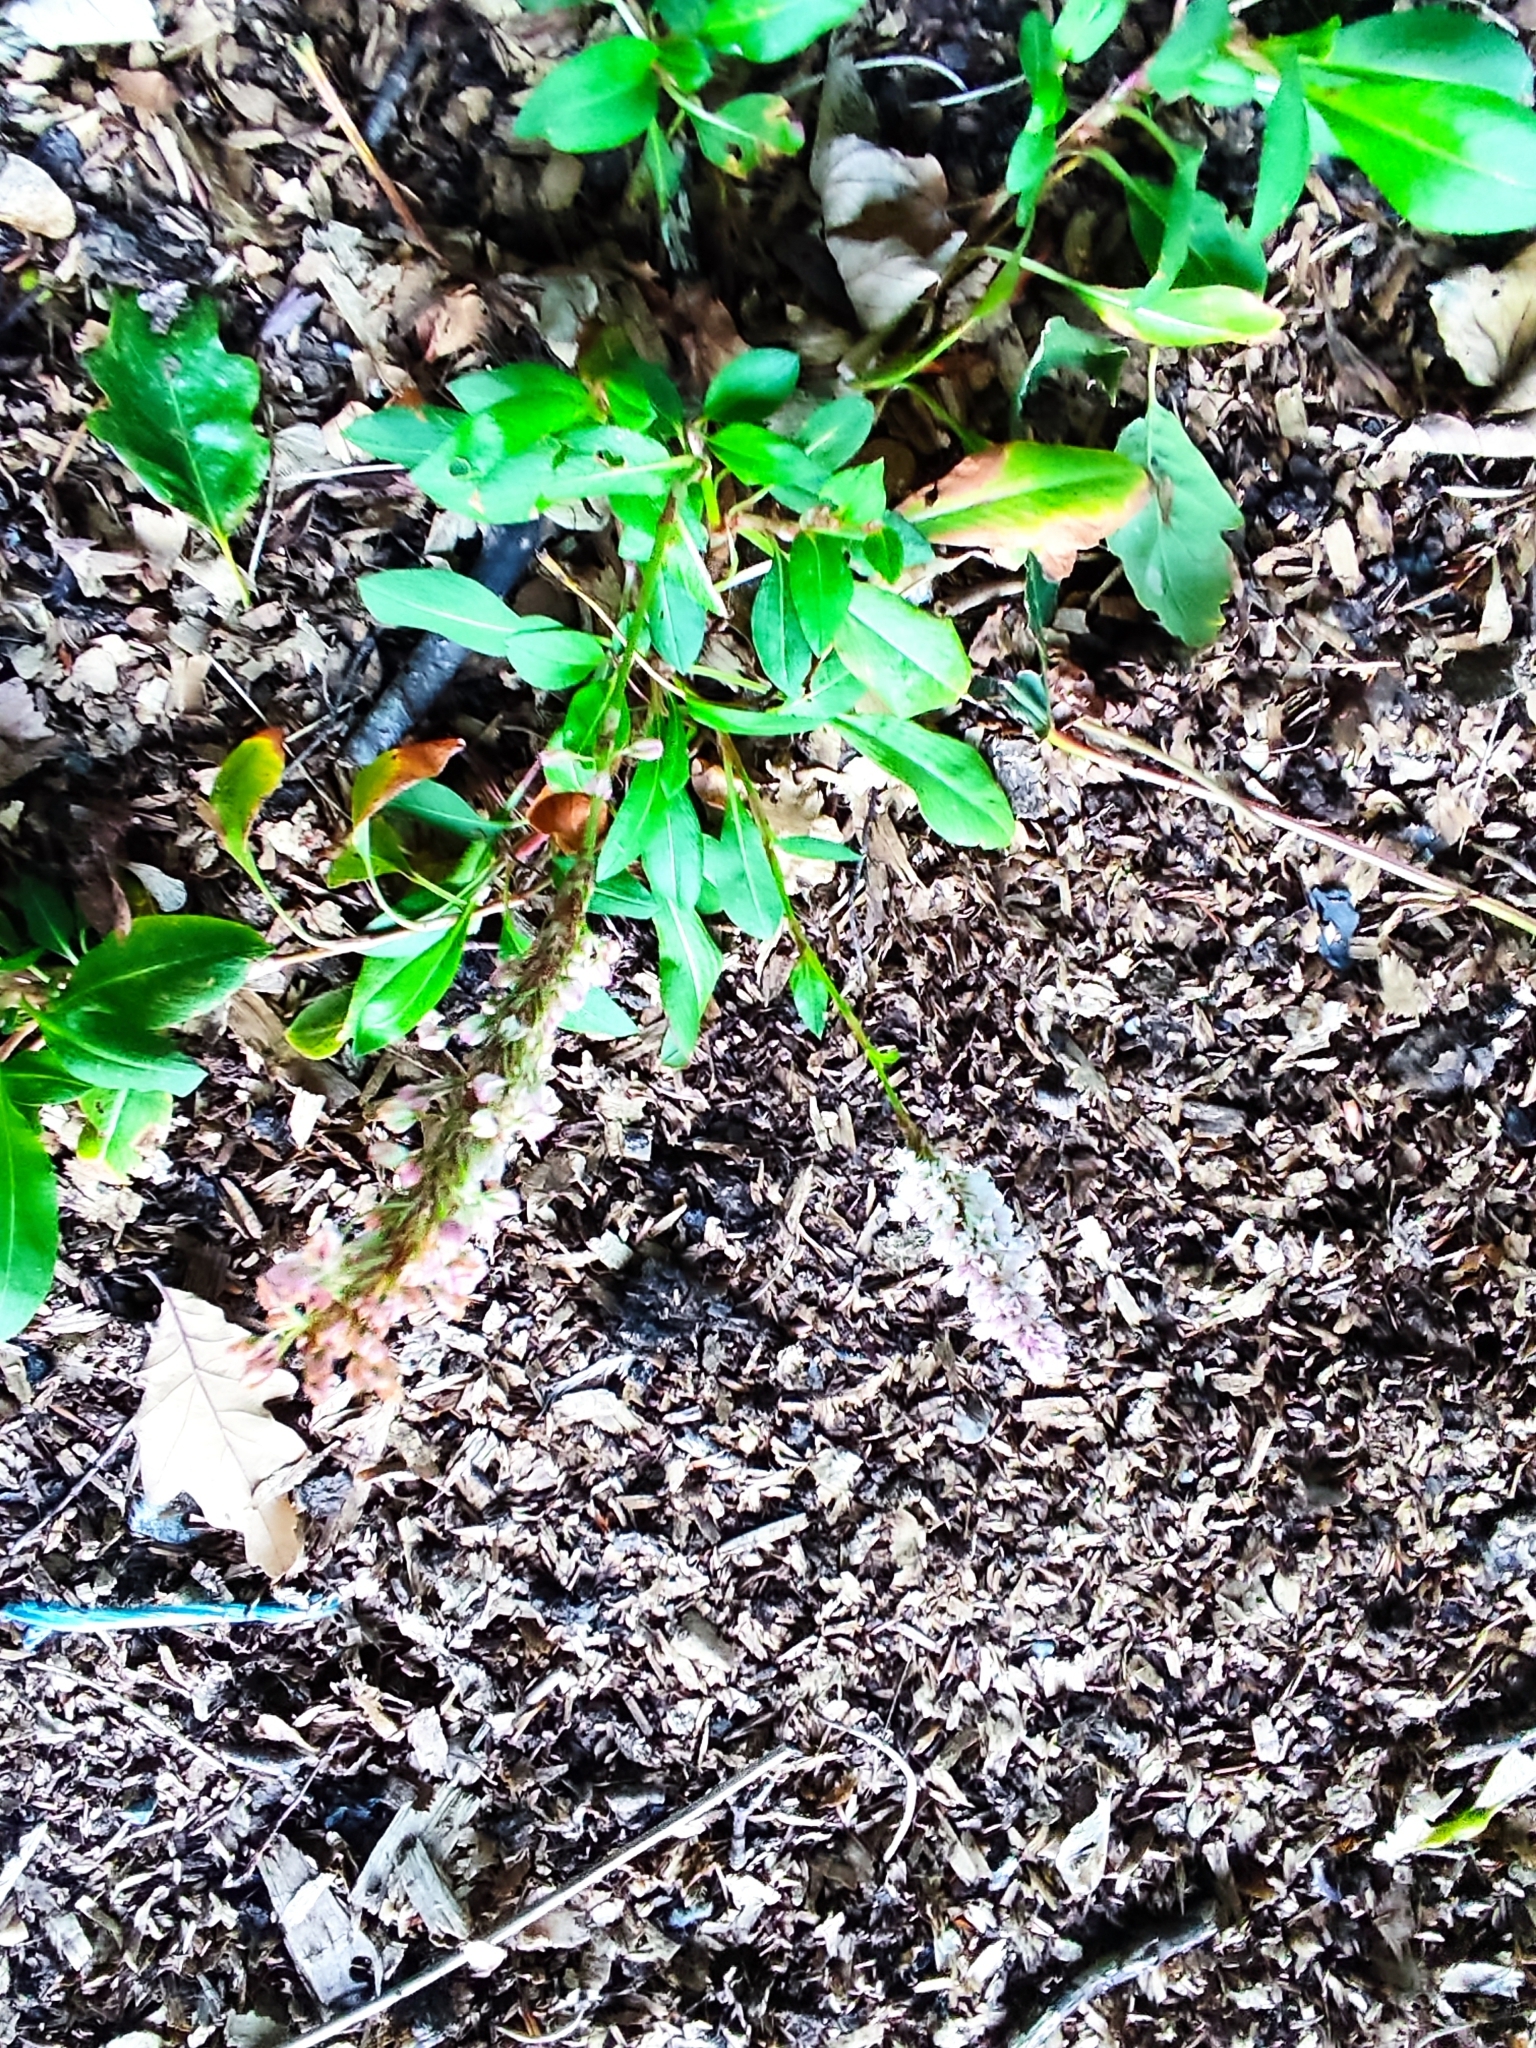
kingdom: Plantae
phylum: Tracheophyta
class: Magnoliopsida
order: Caryophyllales
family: Polygonaceae
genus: Bistorta
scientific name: Bistorta affinis
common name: Himalayan fleeceflower
